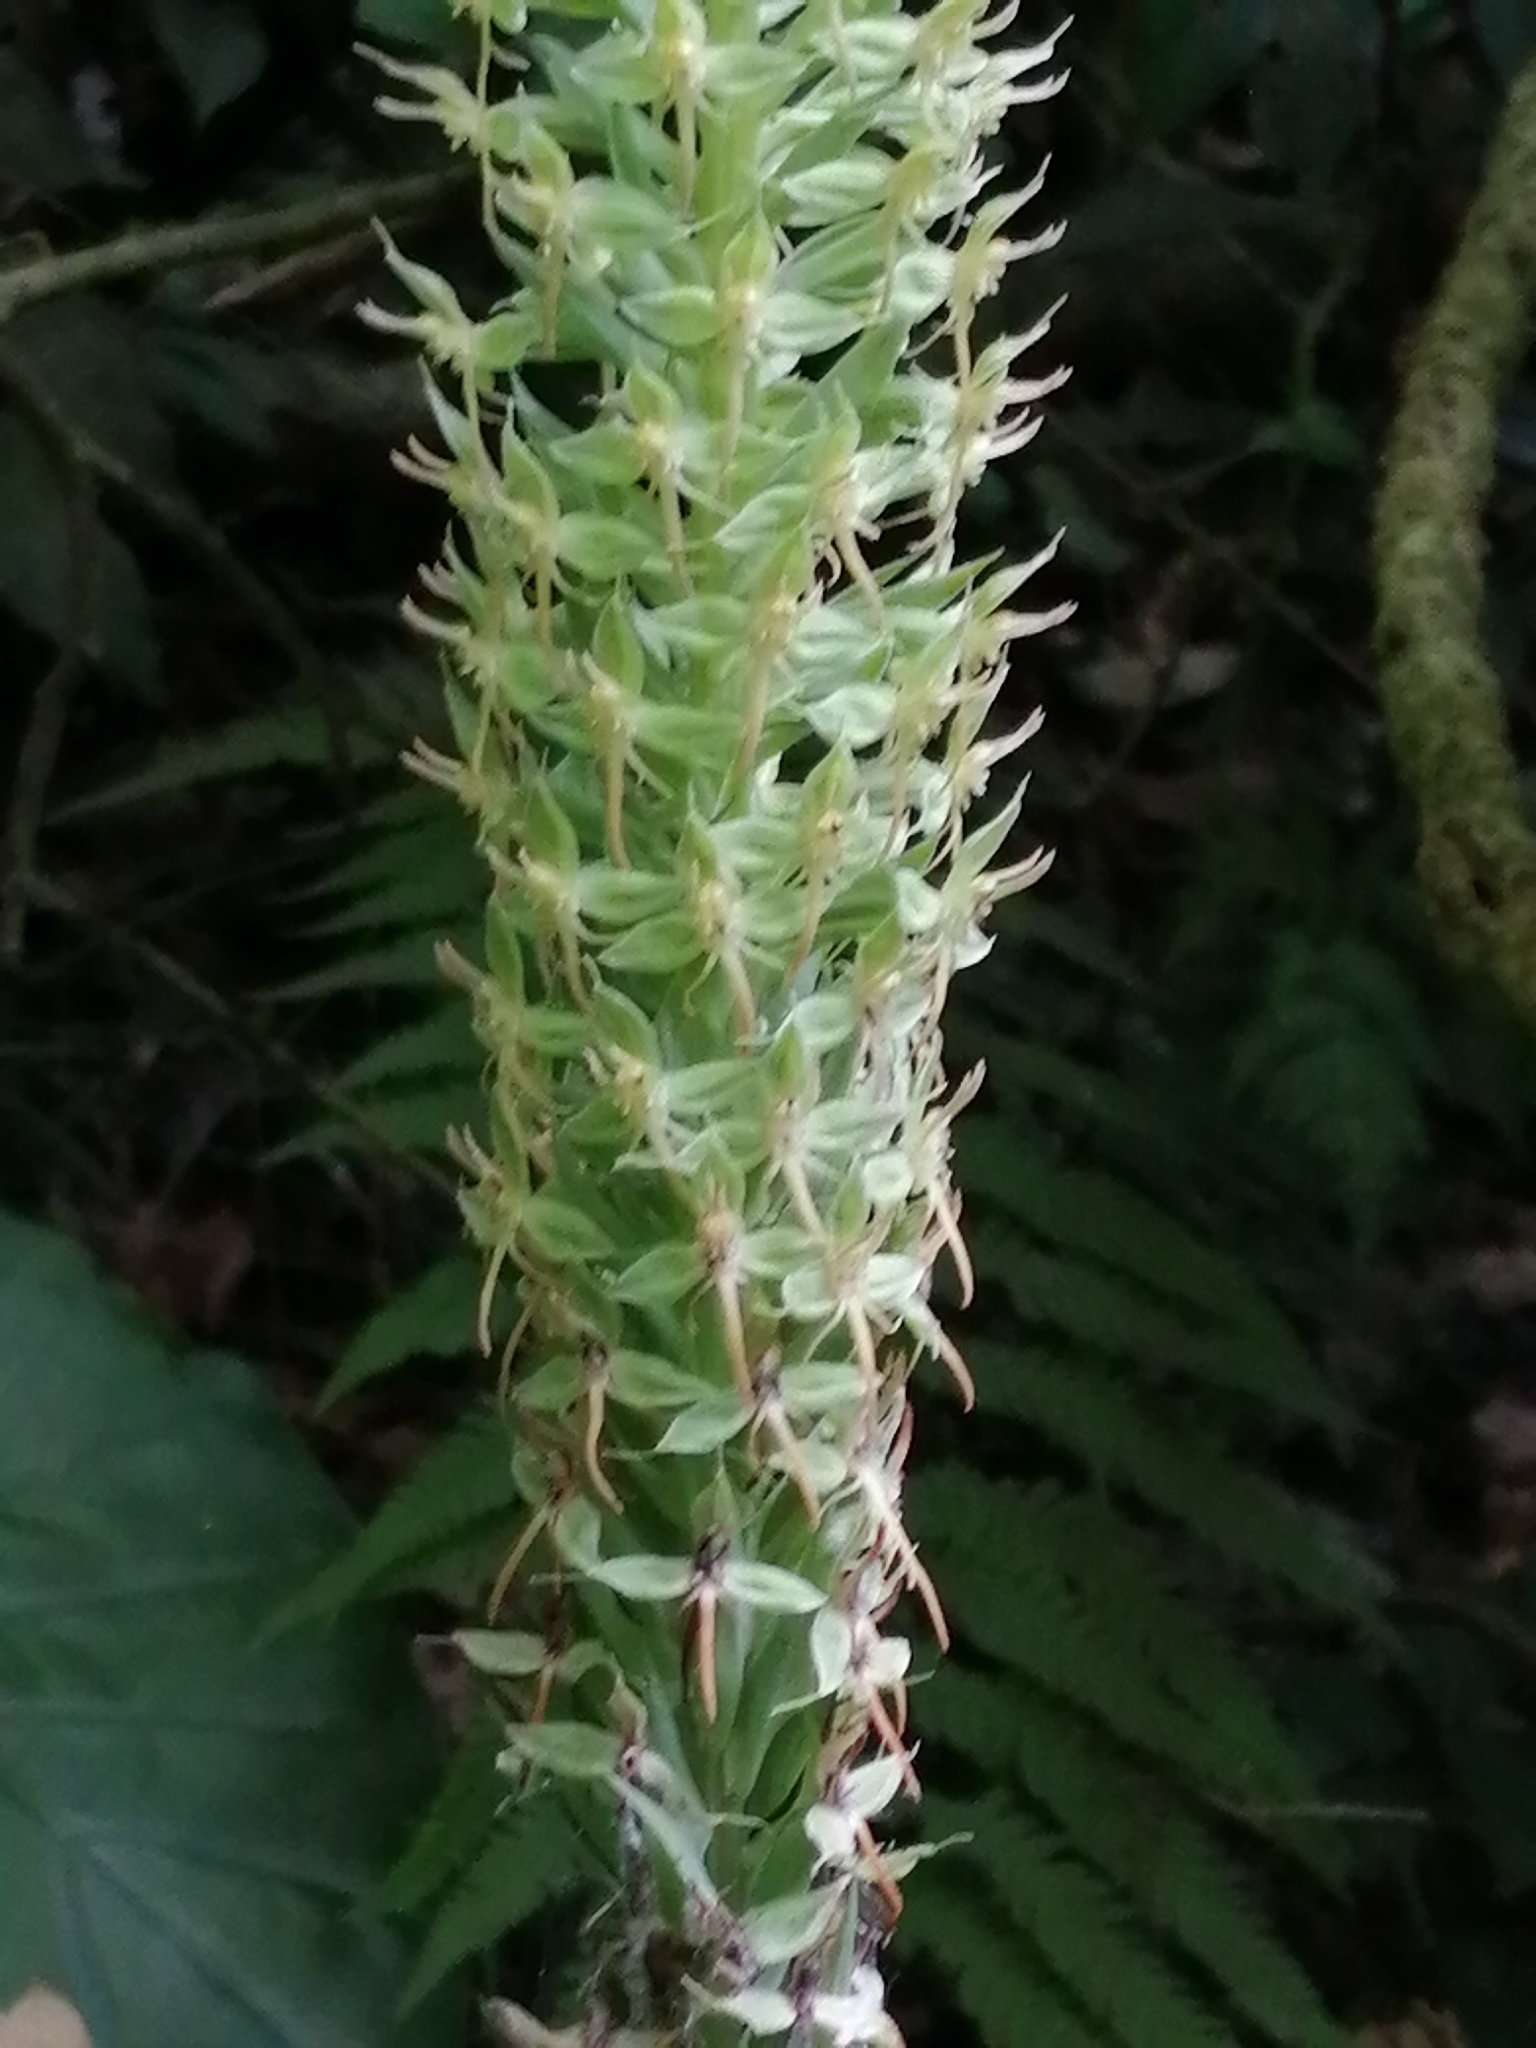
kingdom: Plantae
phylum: Tracheophyta
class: Liliopsida
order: Asparagales
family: Orchidaceae
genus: Habenaria
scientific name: Habenaria stenopetala
